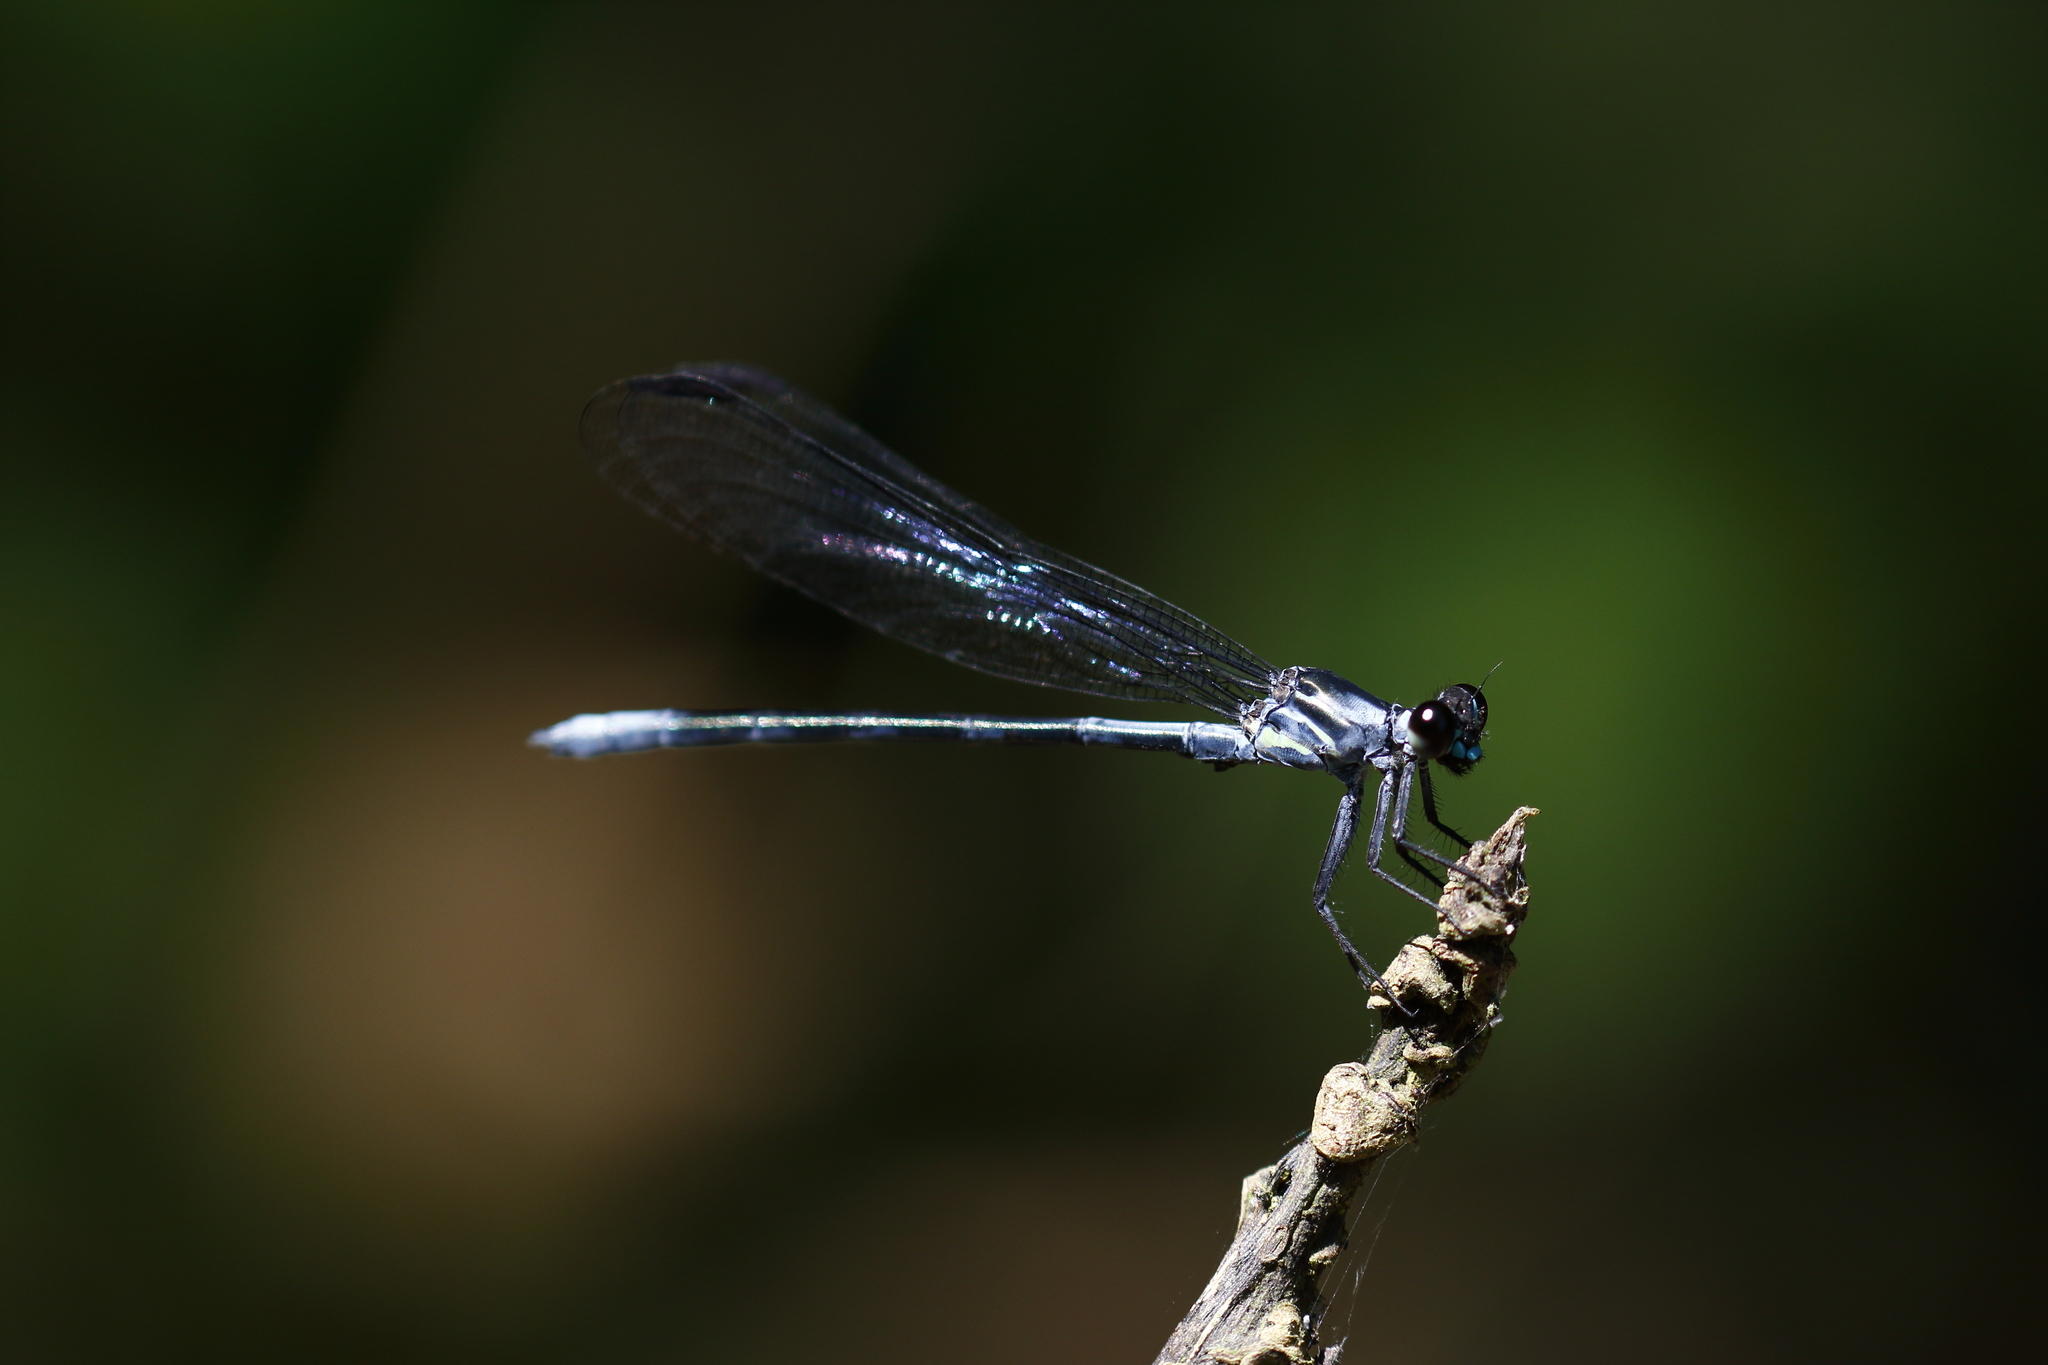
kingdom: Animalia
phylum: Arthropoda
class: Insecta
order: Odonata
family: Euphaeidae
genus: Bayadera
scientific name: Bayadera brevicauda
